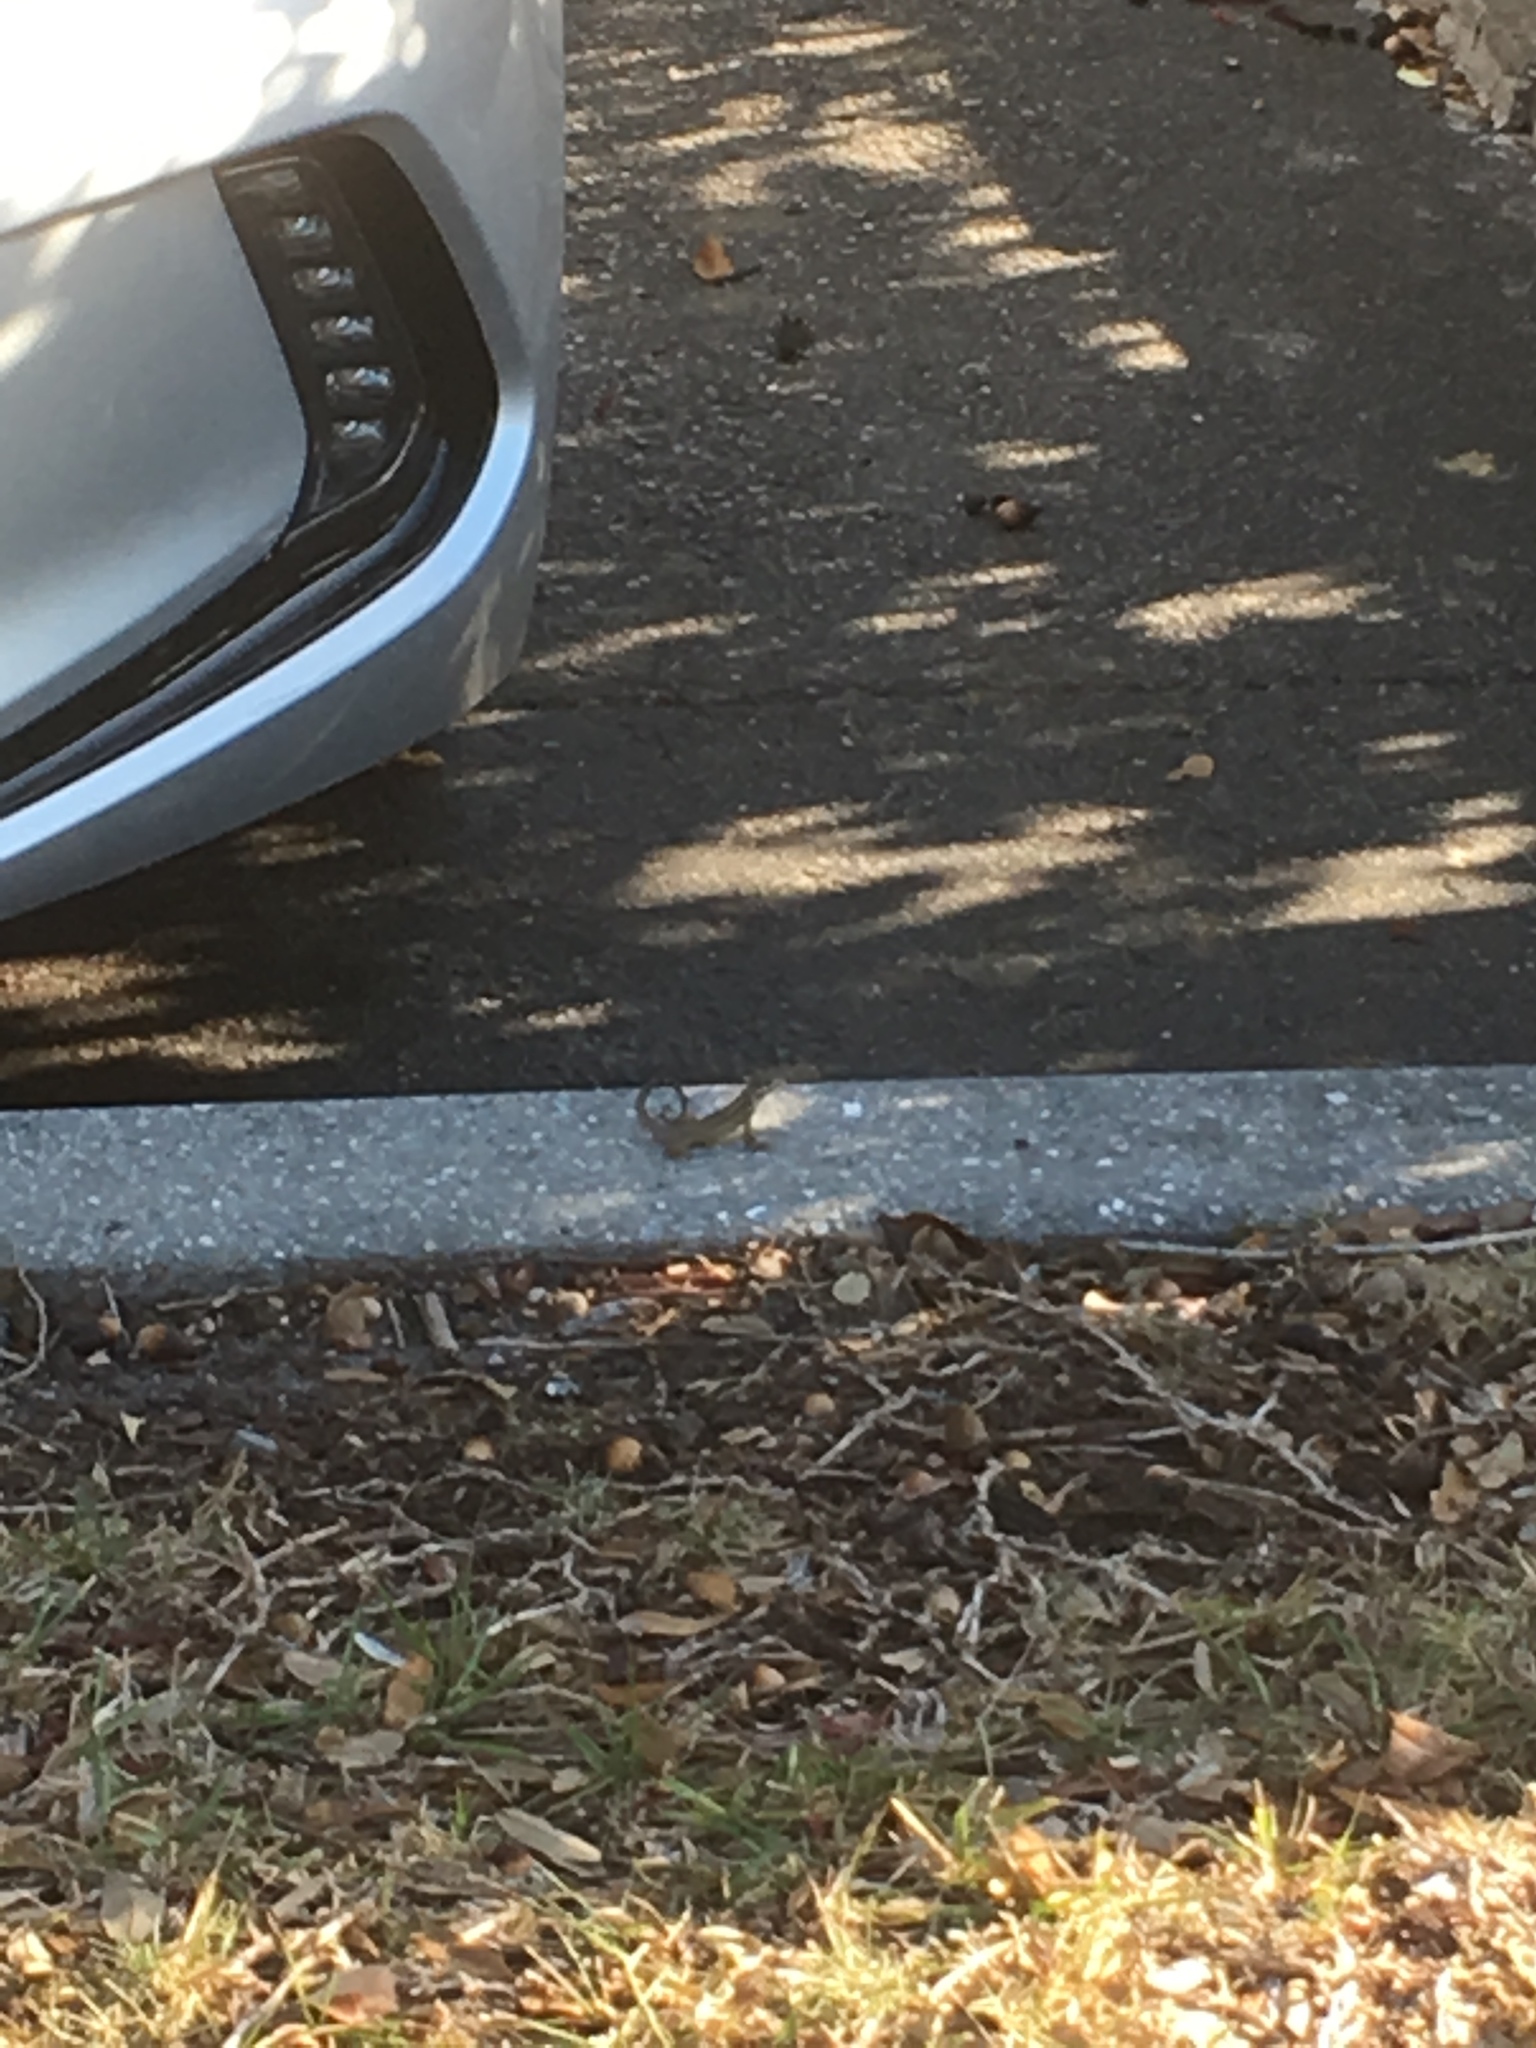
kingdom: Animalia
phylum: Chordata
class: Squamata
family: Leiocephalidae
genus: Leiocephalus
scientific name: Leiocephalus carinatus
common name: Northern curly-tailed lizard
